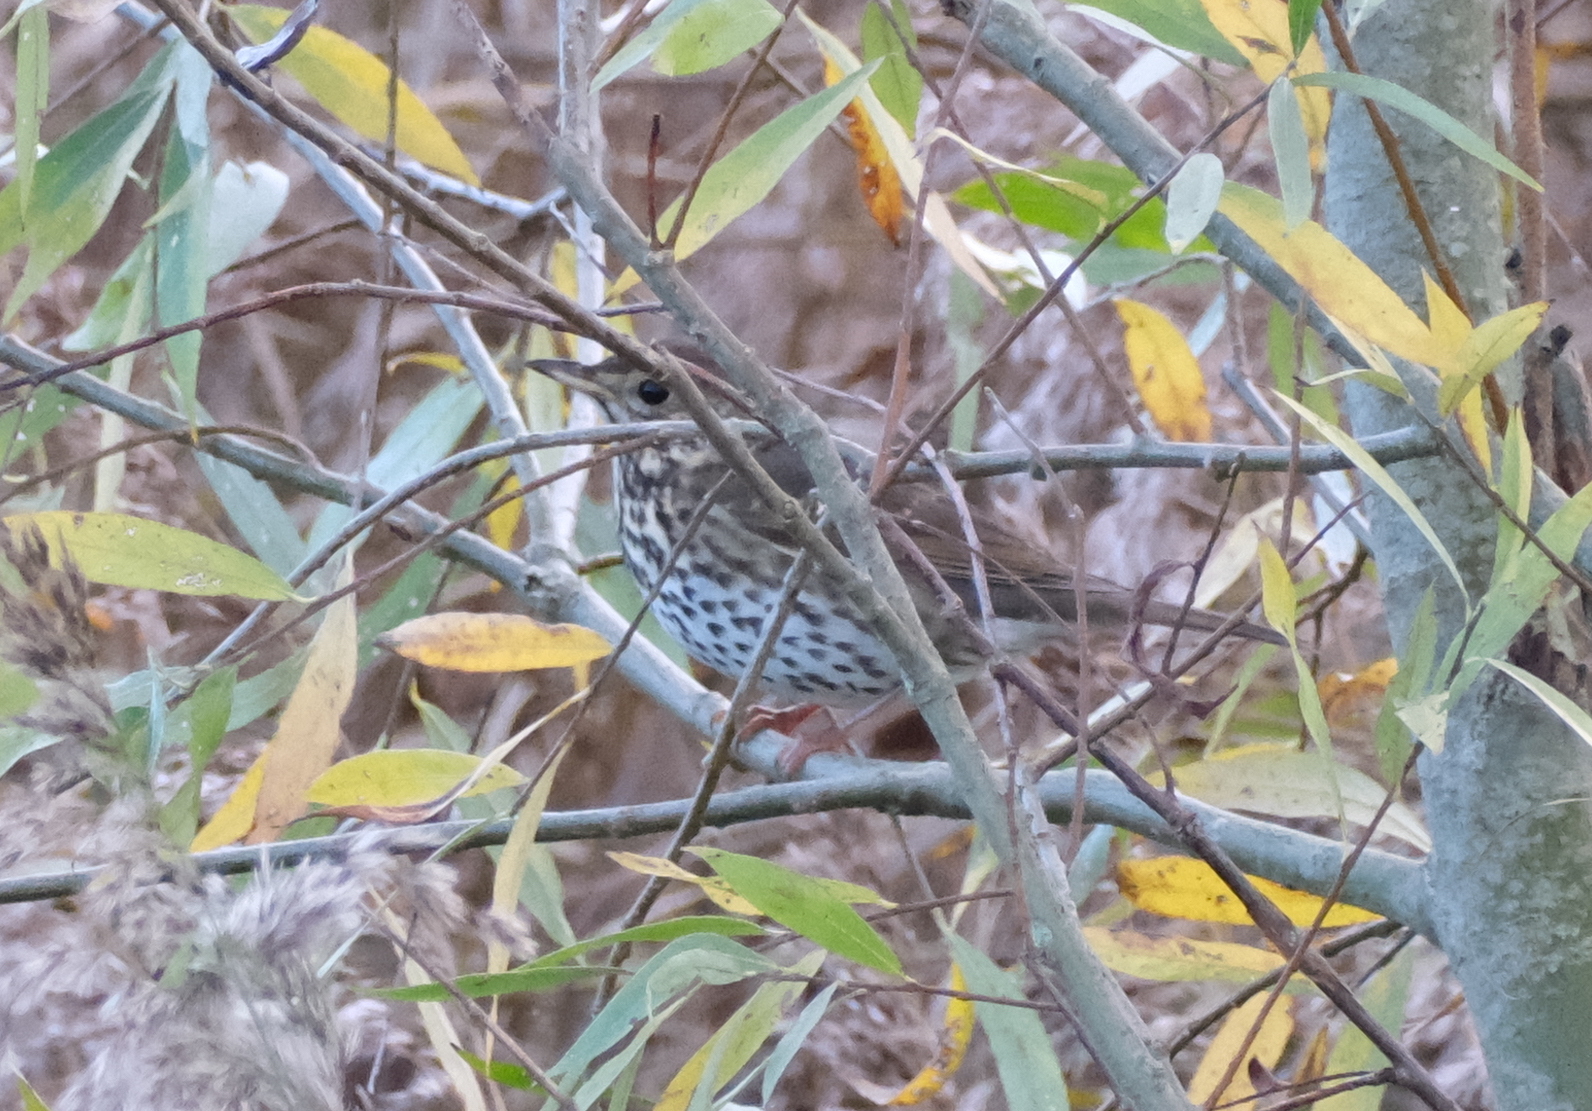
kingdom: Animalia
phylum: Chordata
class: Aves
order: Passeriformes
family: Turdidae
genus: Turdus
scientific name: Turdus philomelos
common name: Song thrush
